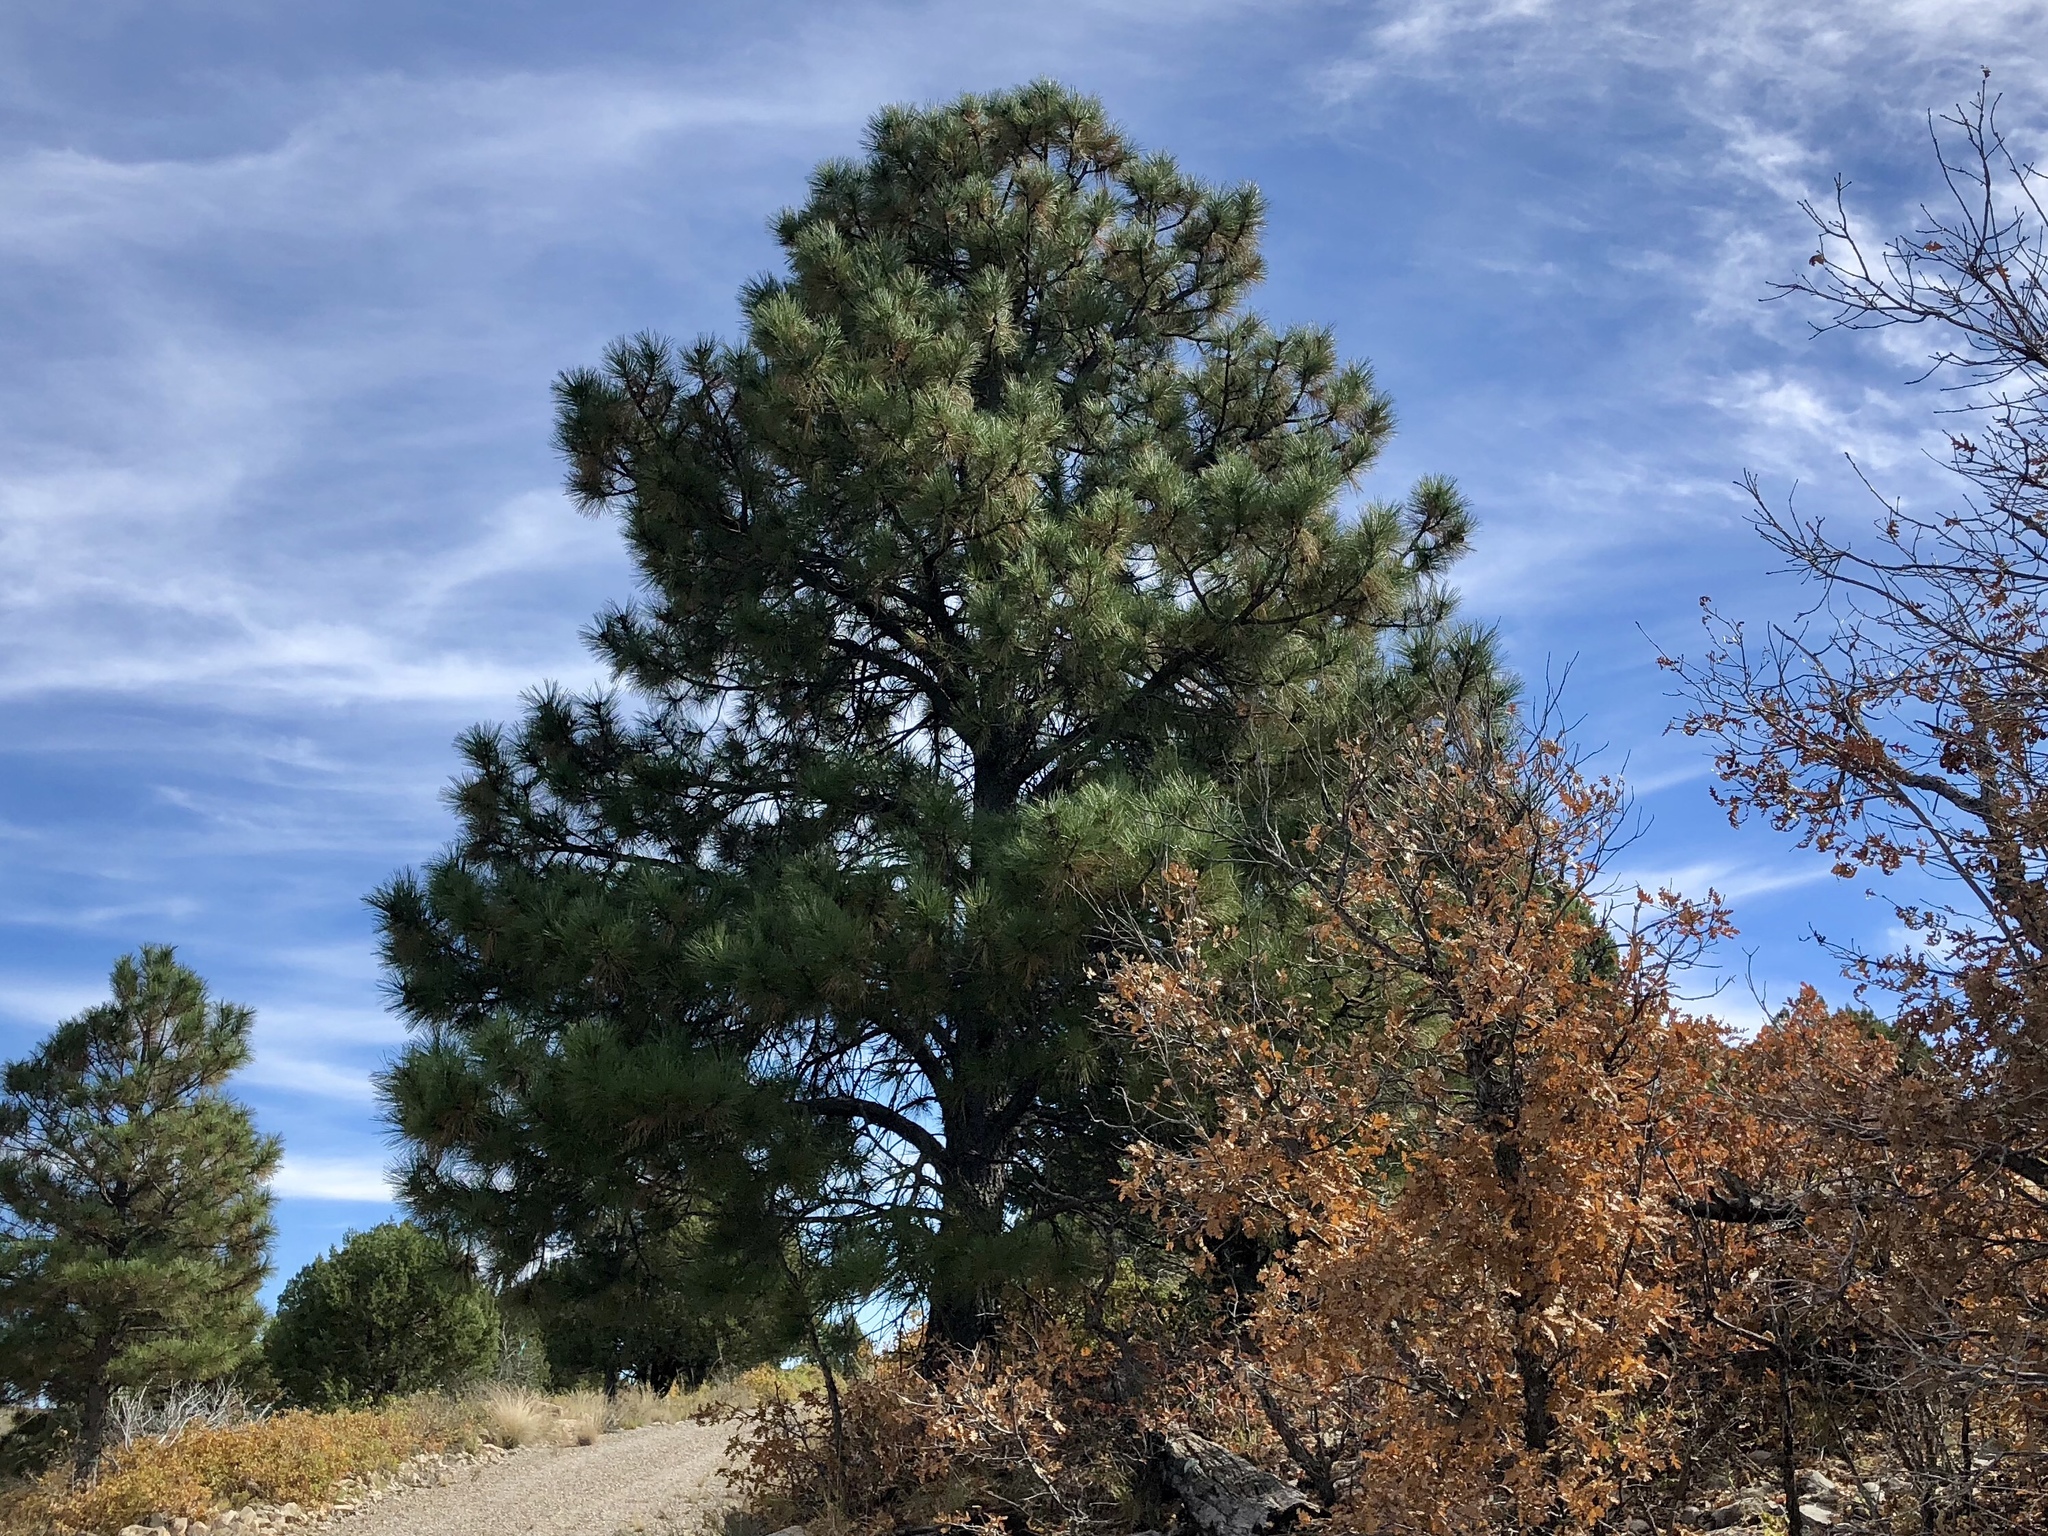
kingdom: Plantae
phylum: Tracheophyta
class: Pinopsida
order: Pinales
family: Pinaceae
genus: Pinus
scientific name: Pinus ponderosa
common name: Western yellow-pine
